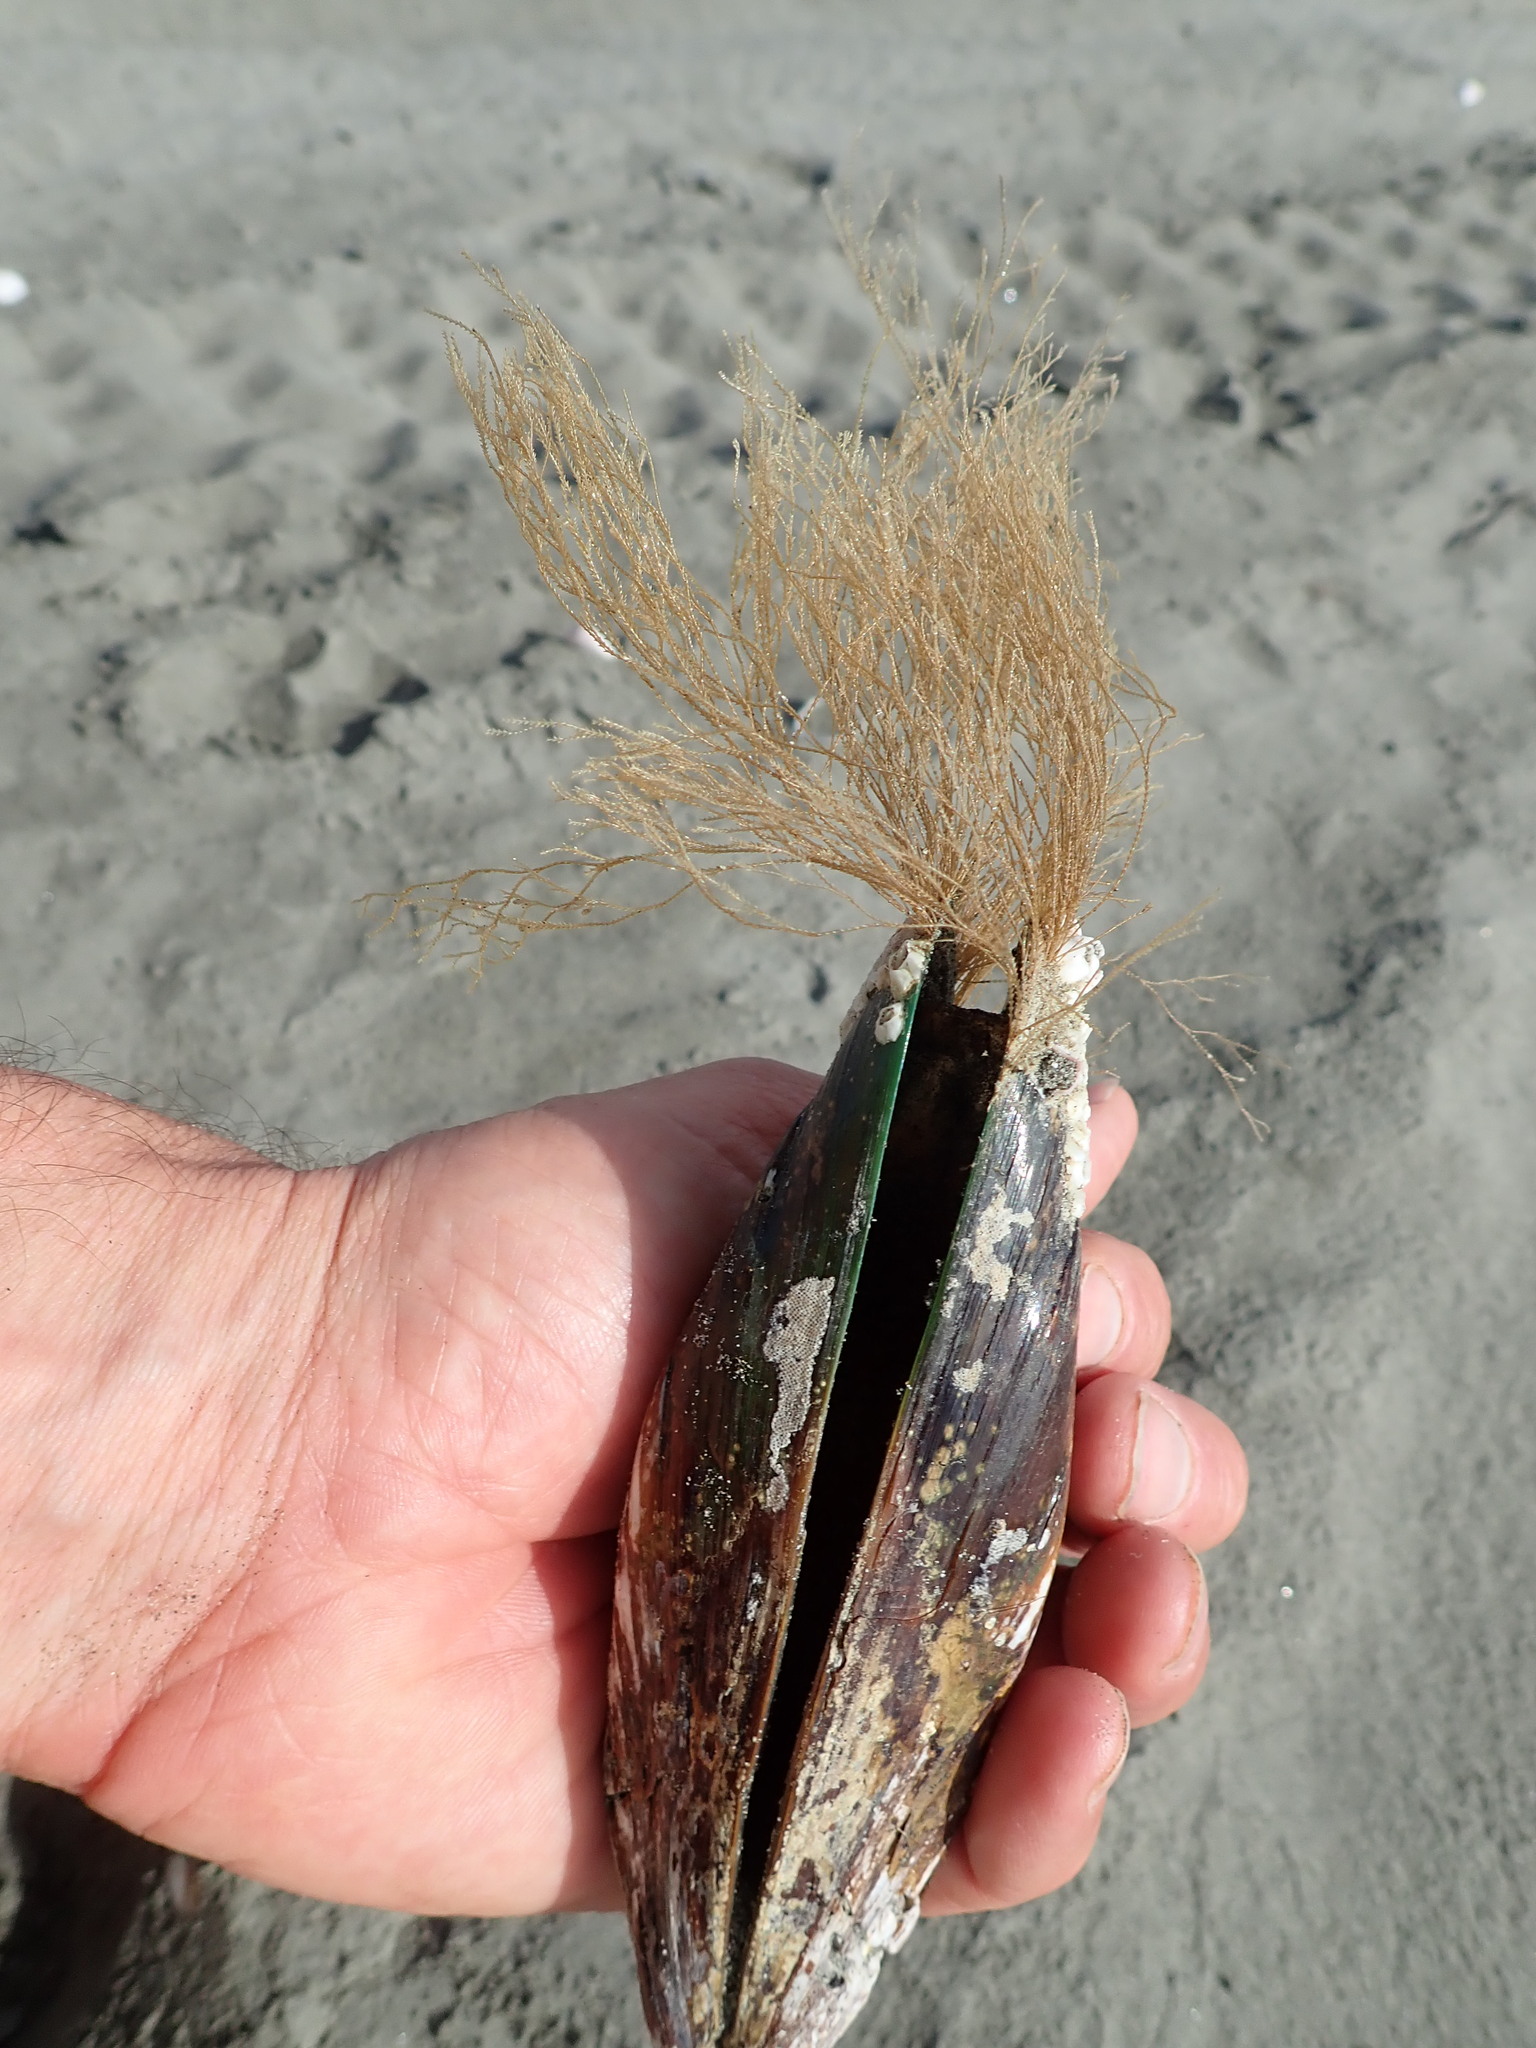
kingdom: Animalia
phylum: Mollusca
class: Bivalvia
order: Mytilida
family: Mytilidae
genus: Perna
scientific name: Perna canaliculus
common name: New zealand greenshelltm
